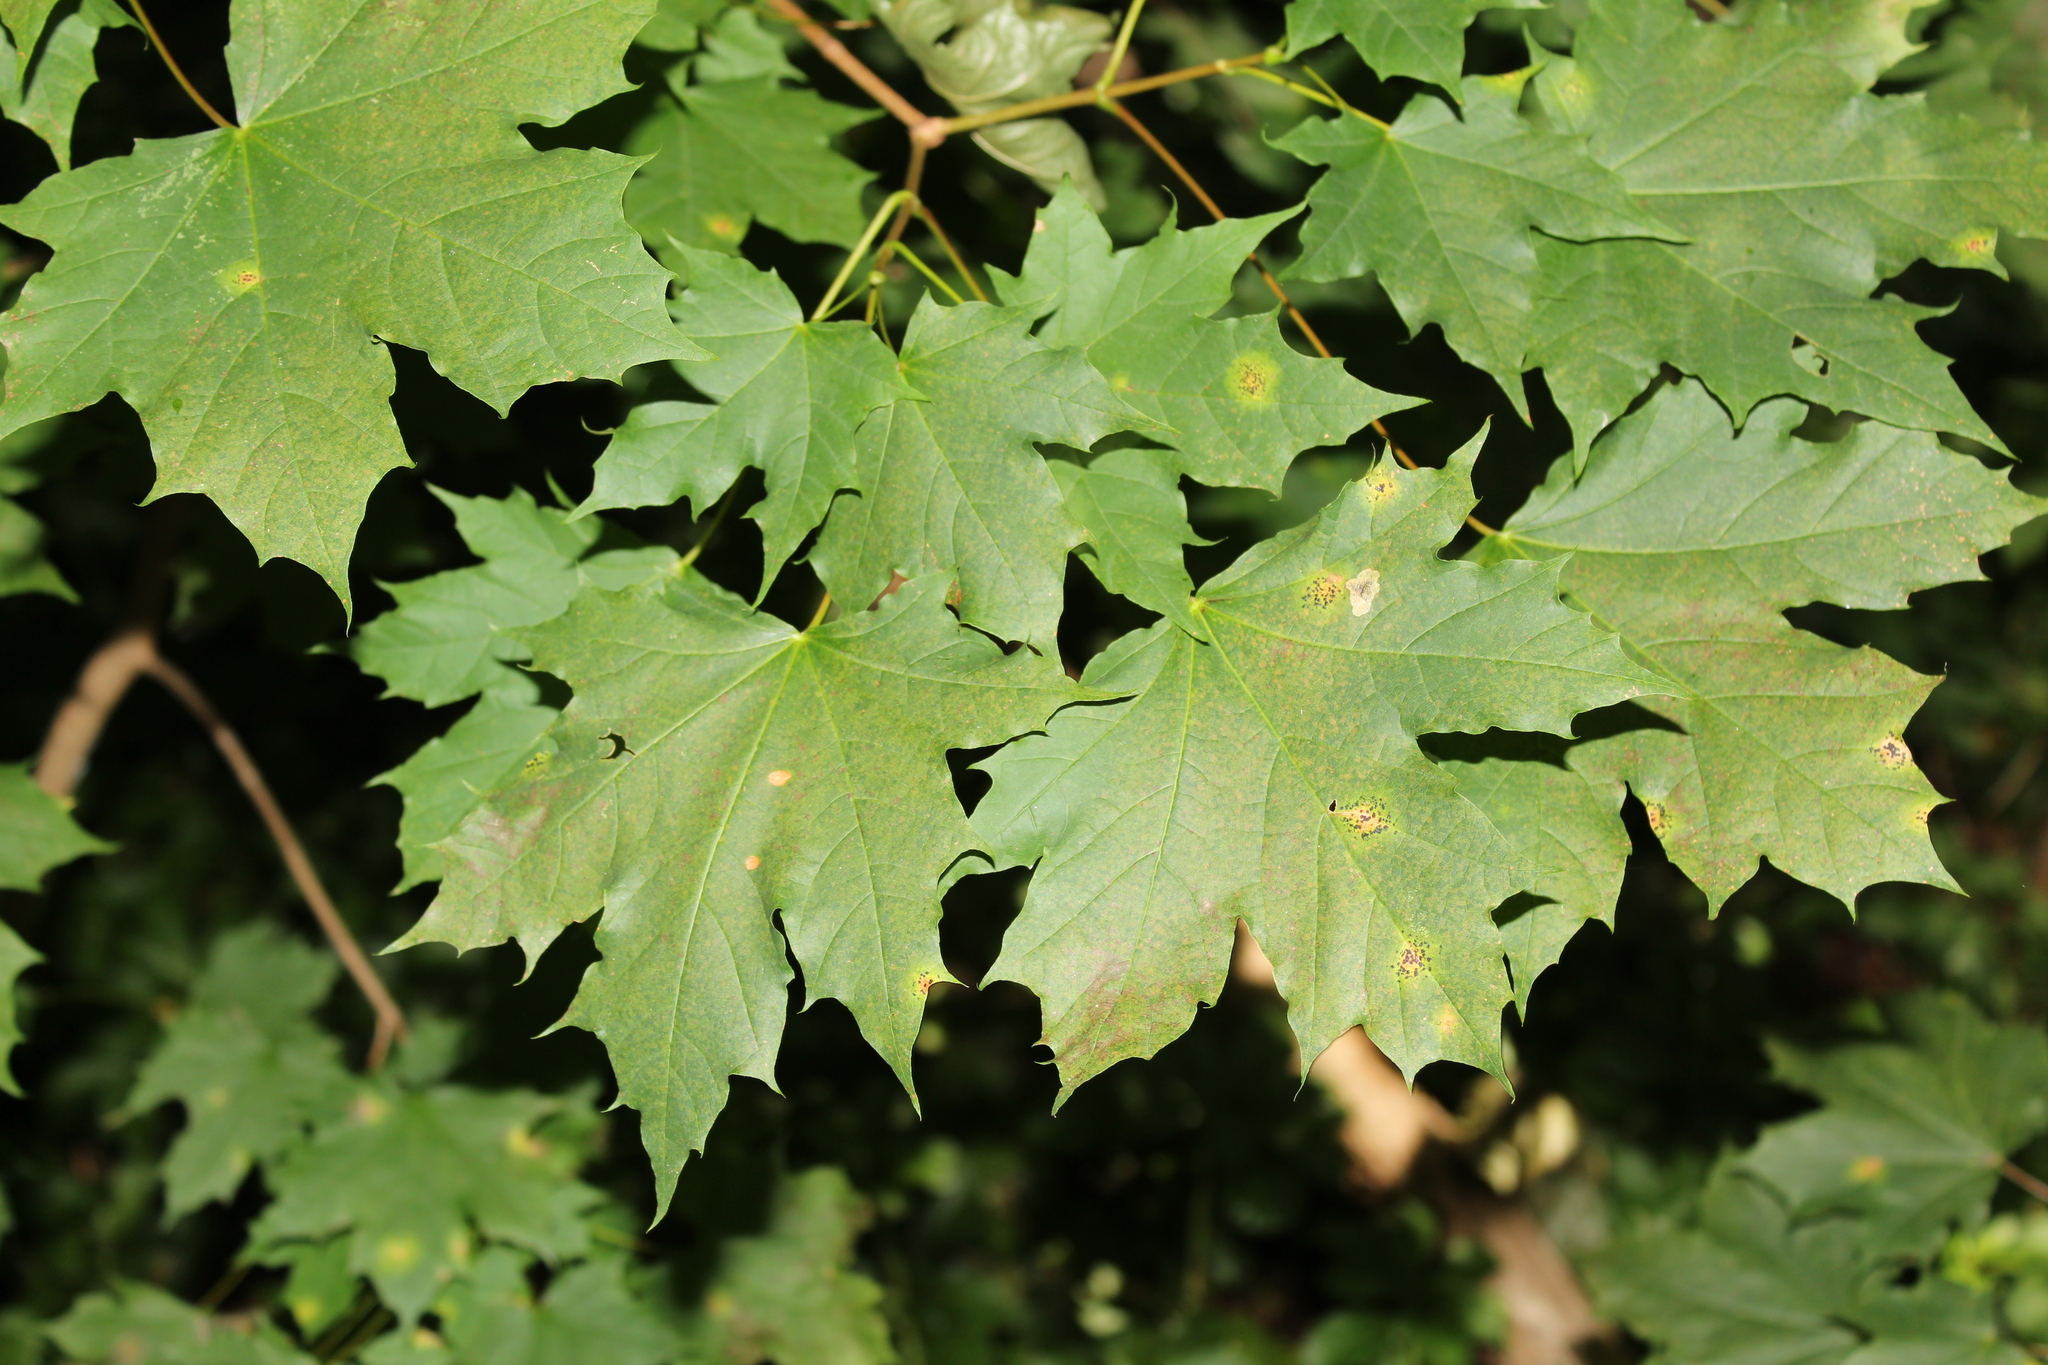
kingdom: Plantae
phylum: Tracheophyta
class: Magnoliopsida
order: Sapindales
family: Sapindaceae
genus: Acer
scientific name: Acer platanoides
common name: Norway maple
